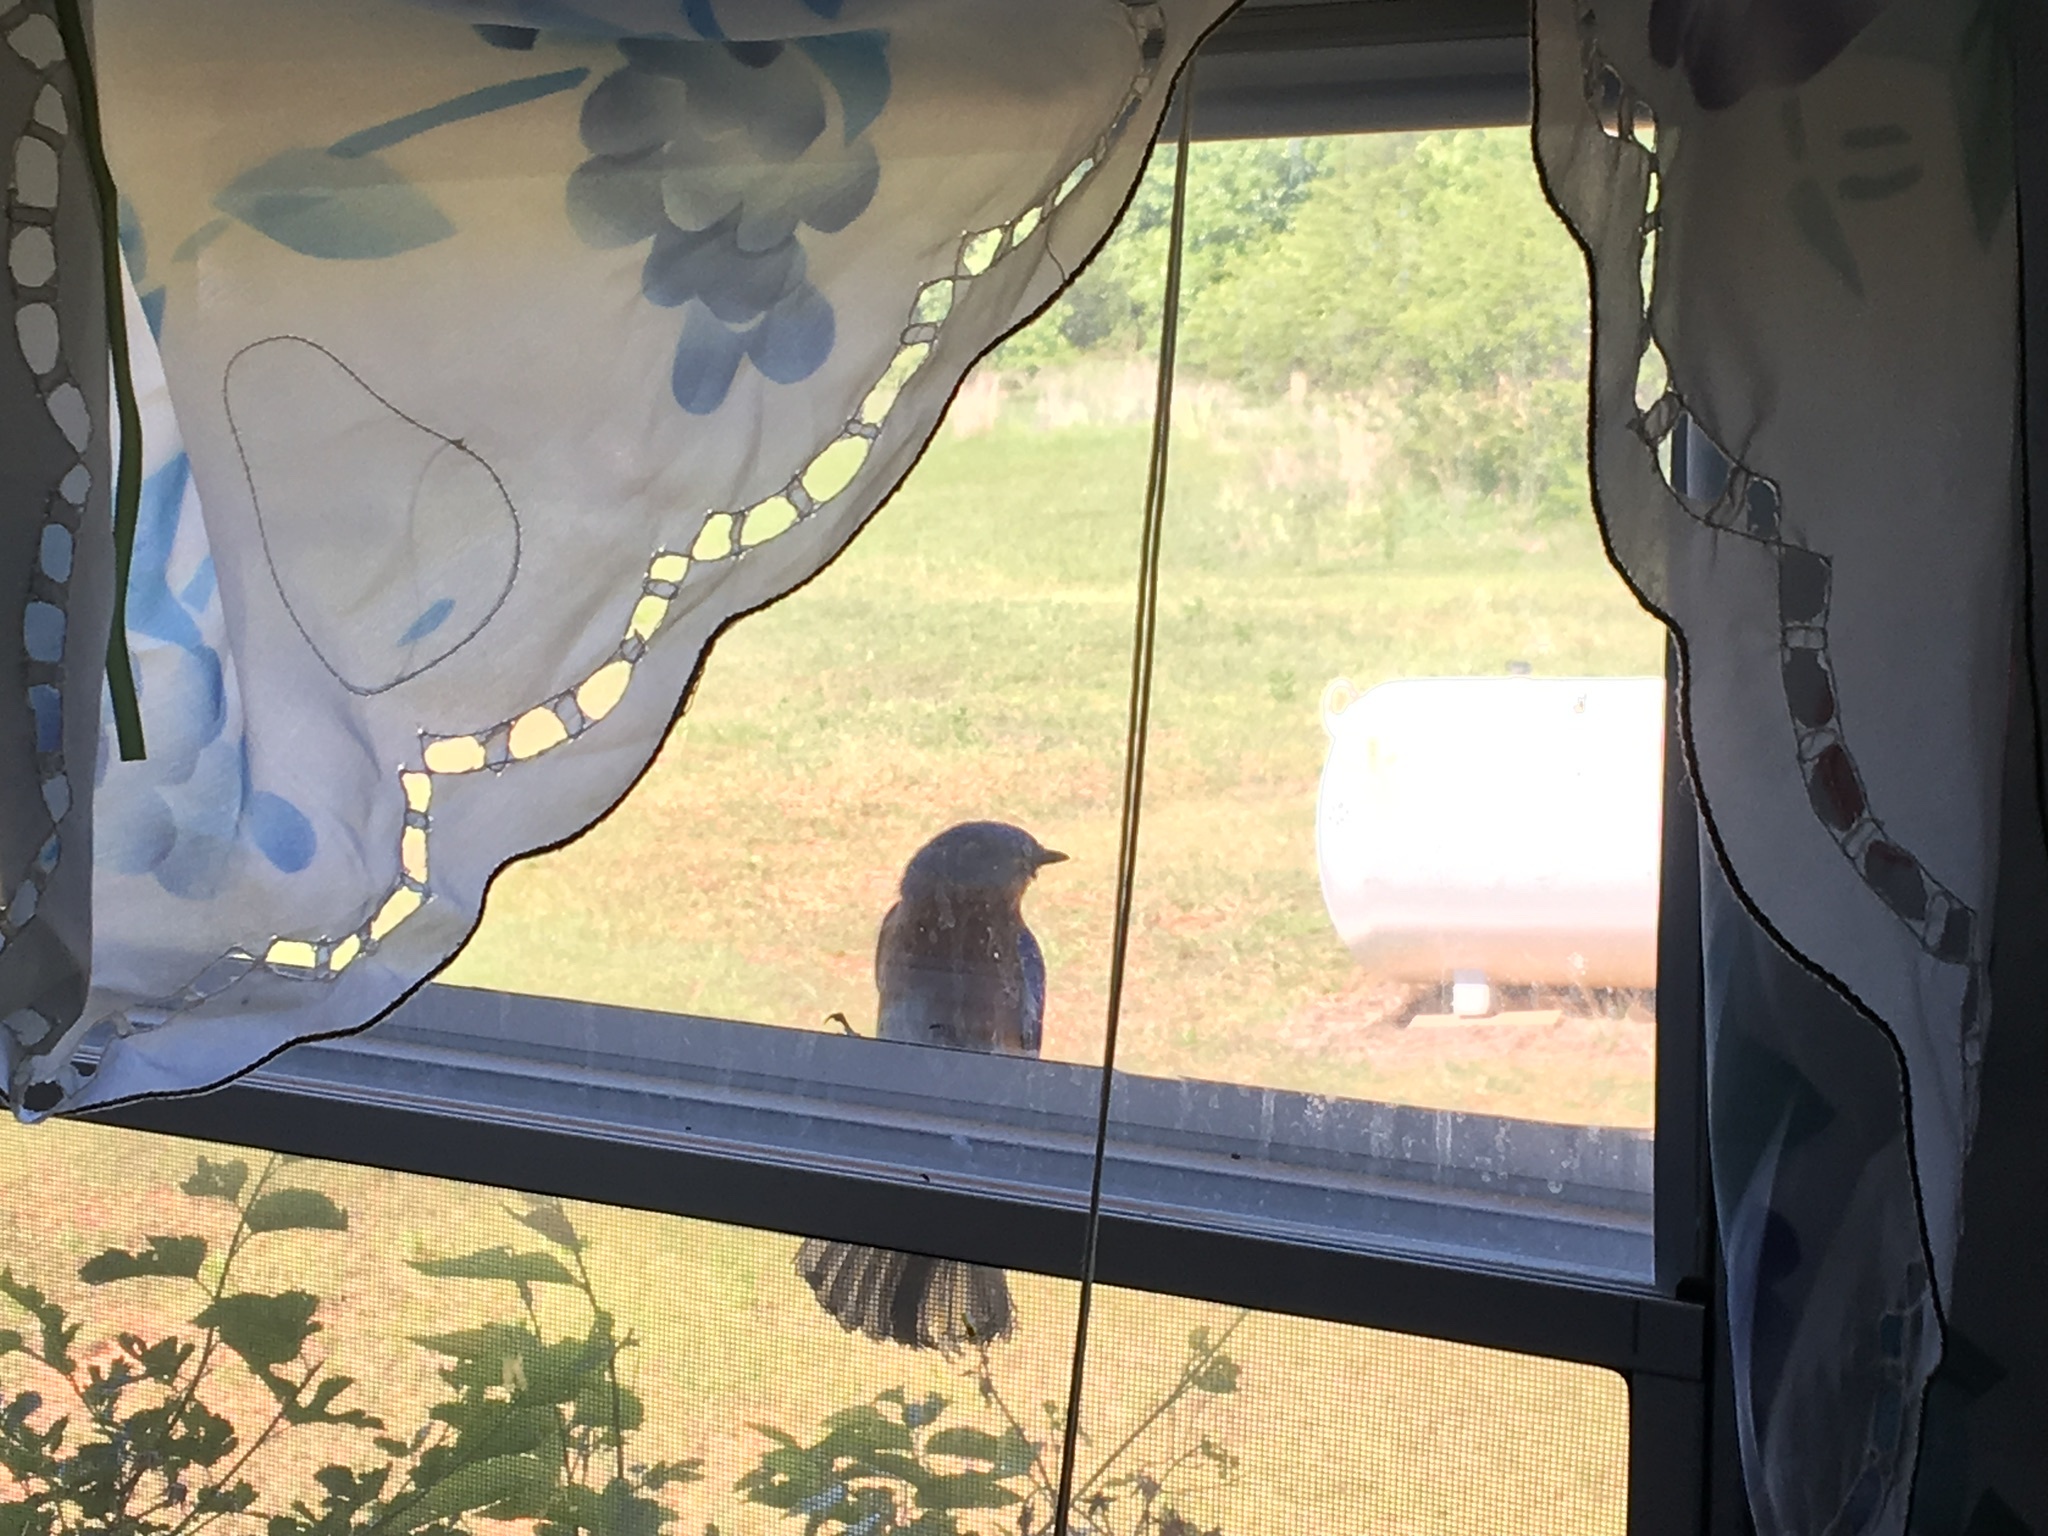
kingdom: Animalia
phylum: Chordata
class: Aves
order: Passeriformes
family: Turdidae
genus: Sialia
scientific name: Sialia sialis
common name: Eastern bluebird
